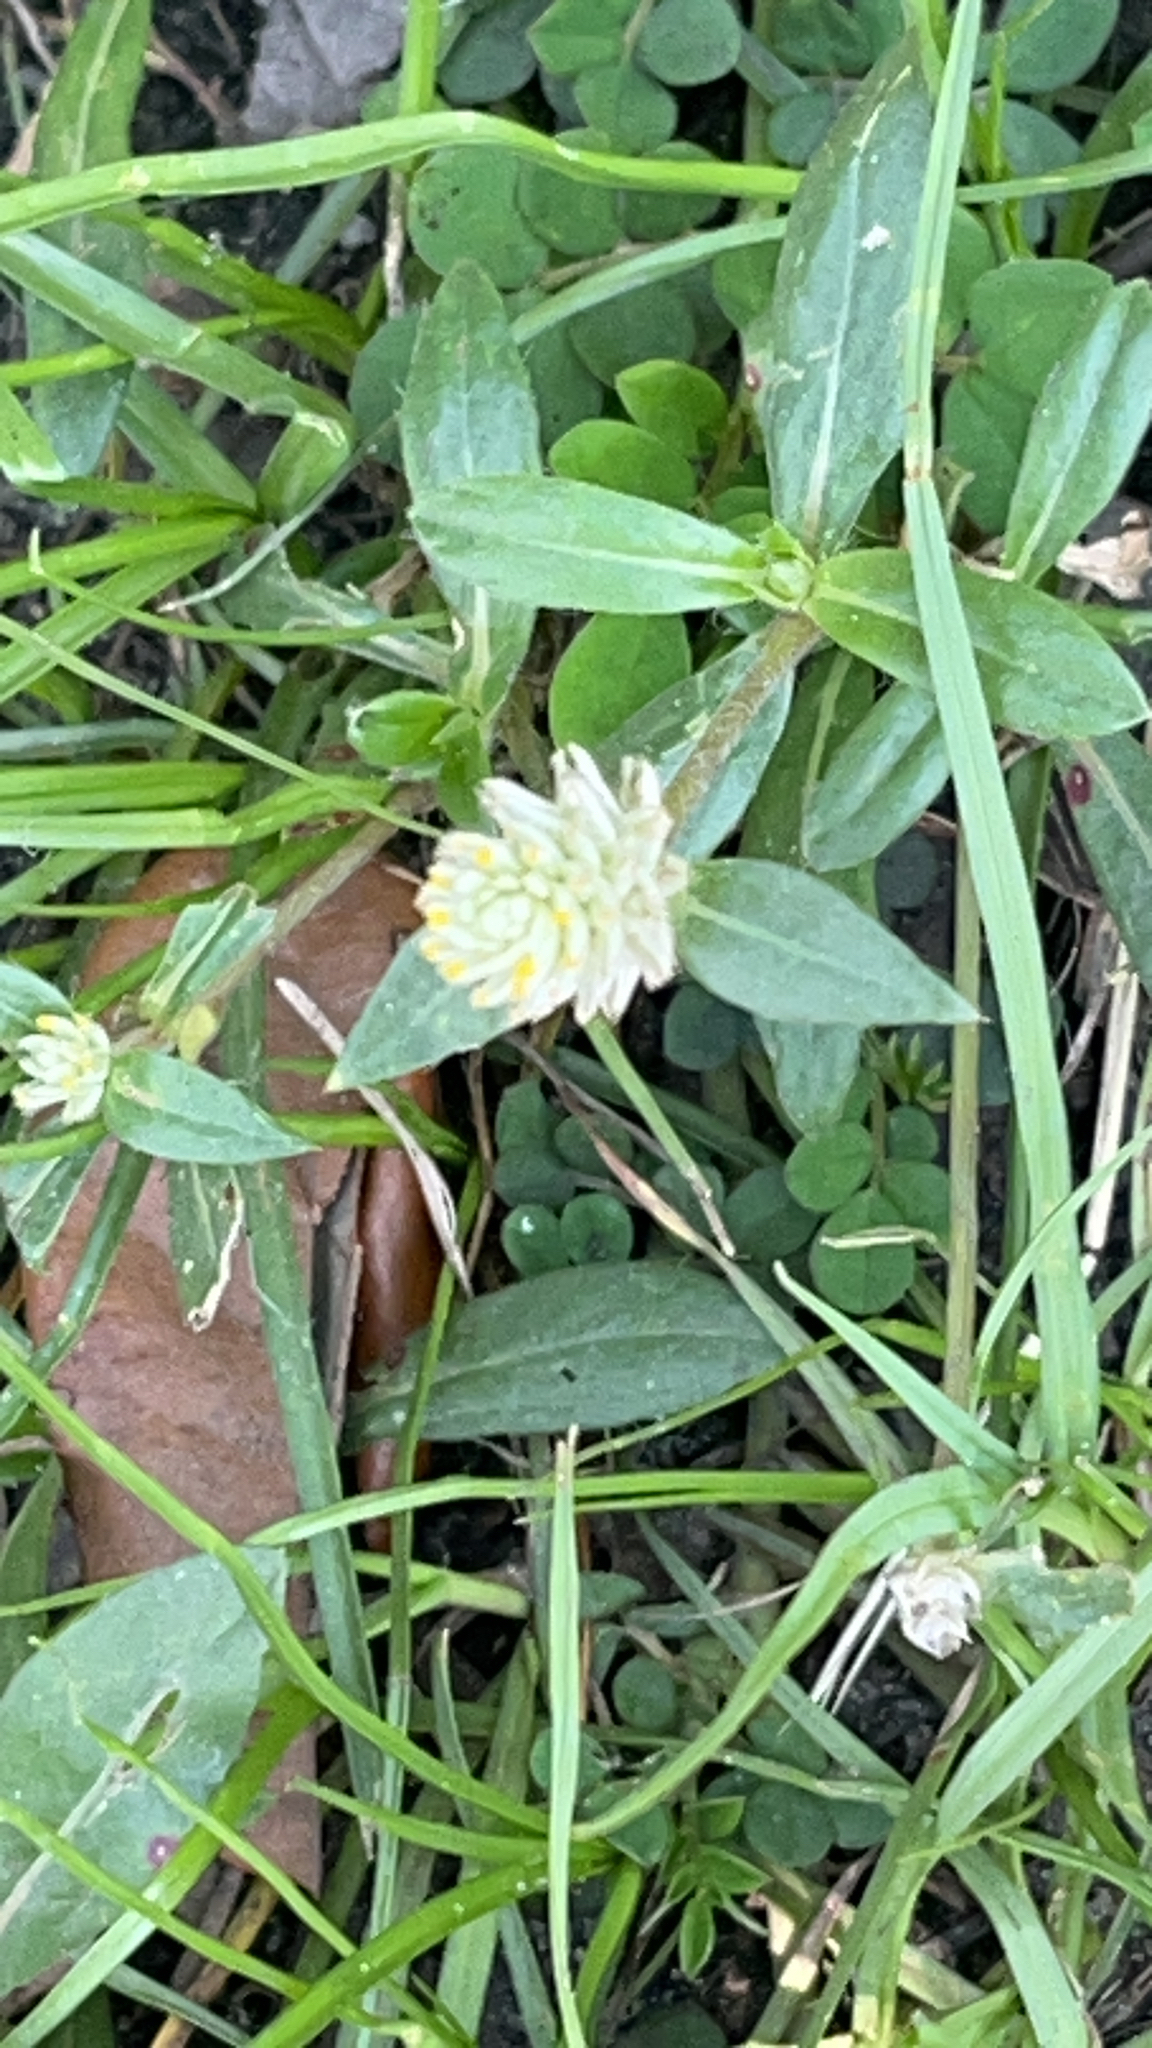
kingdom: Plantae
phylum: Tracheophyta
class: Magnoliopsida
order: Caryophyllales
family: Amaranthaceae
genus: Gomphrena
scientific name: Gomphrena serrata
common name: Arrasa con todo
